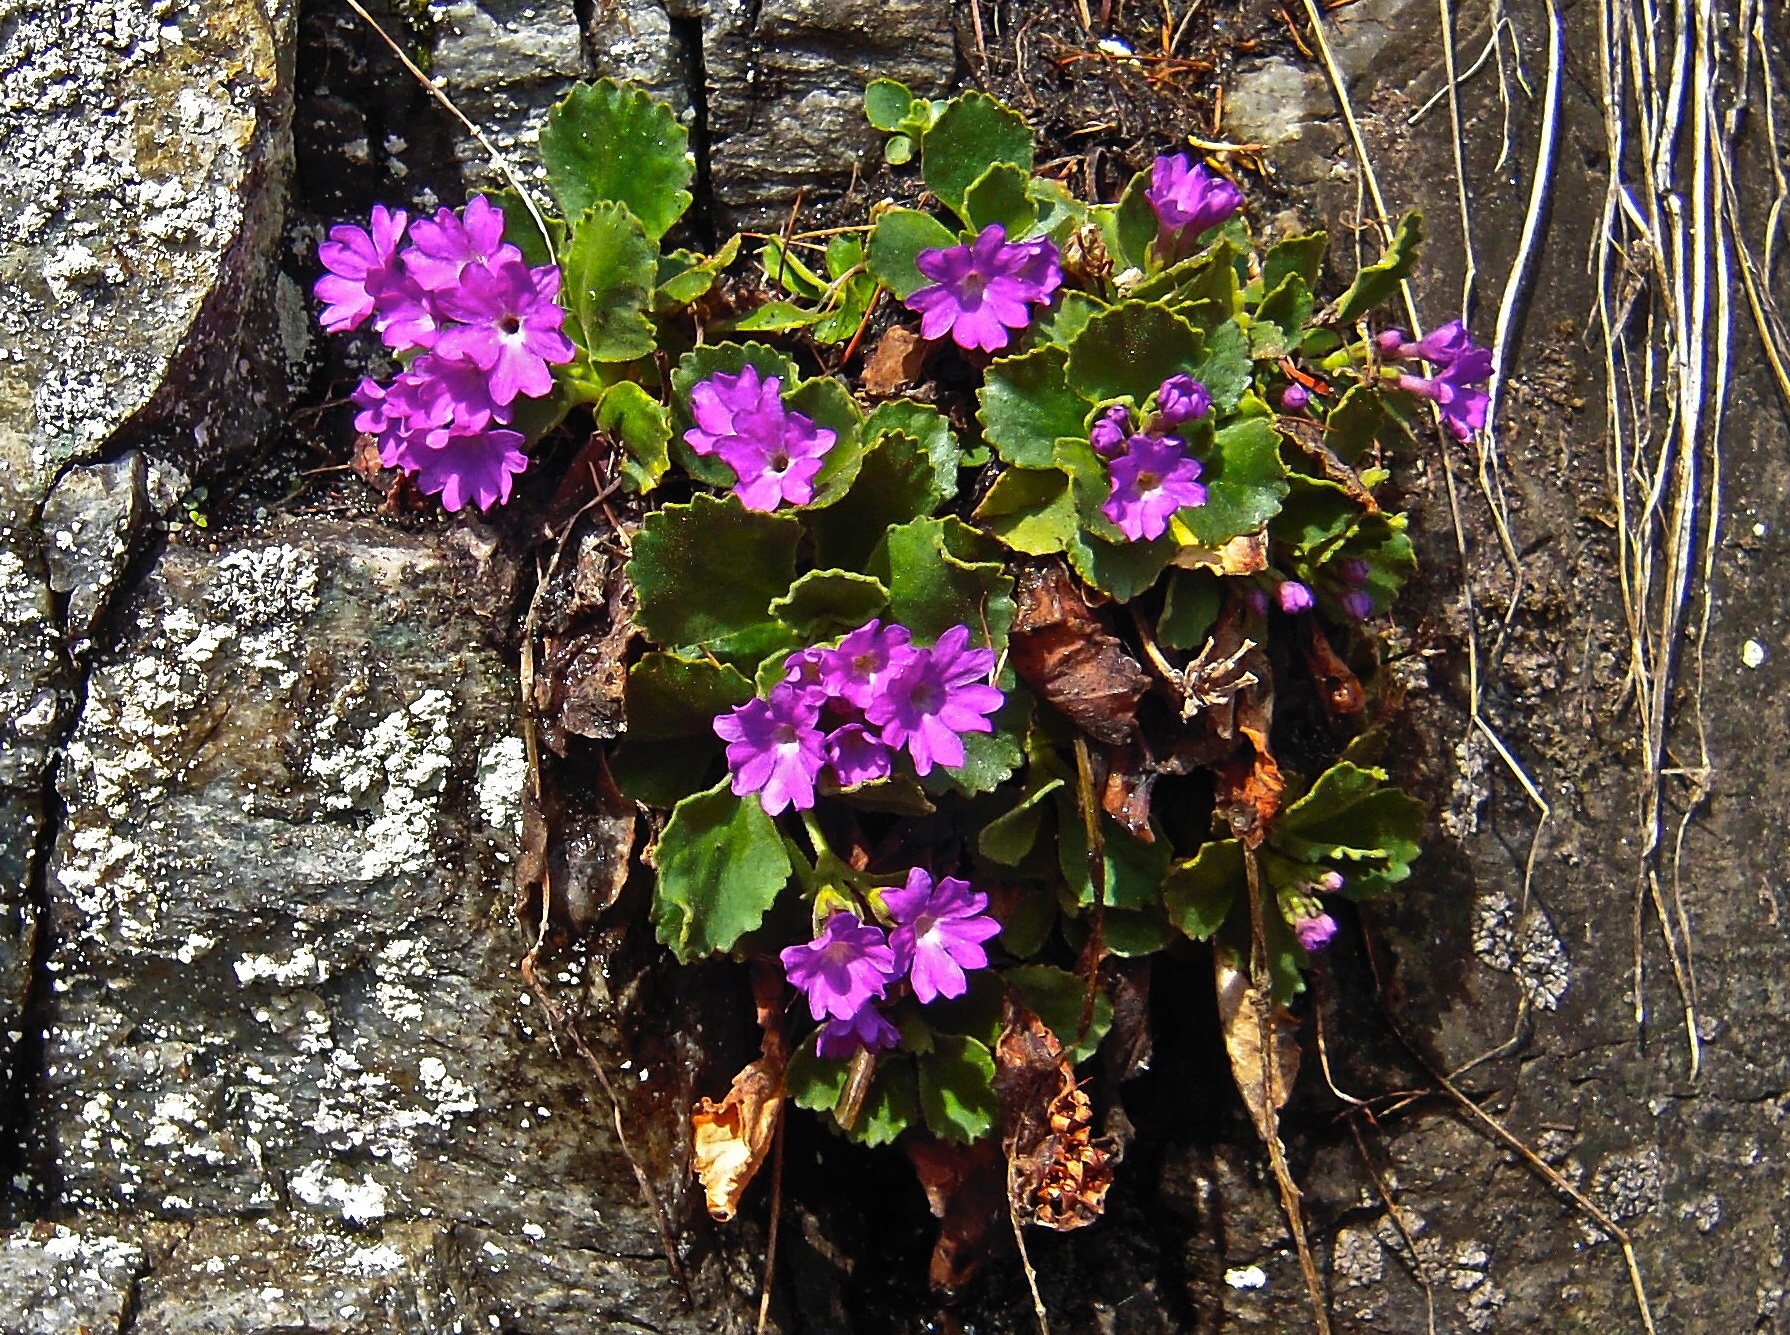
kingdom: Plantae
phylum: Tracheophyta
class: Magnoliopsida
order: Ericales
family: Primulaceae
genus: Primula
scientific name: Primula hirsuta
